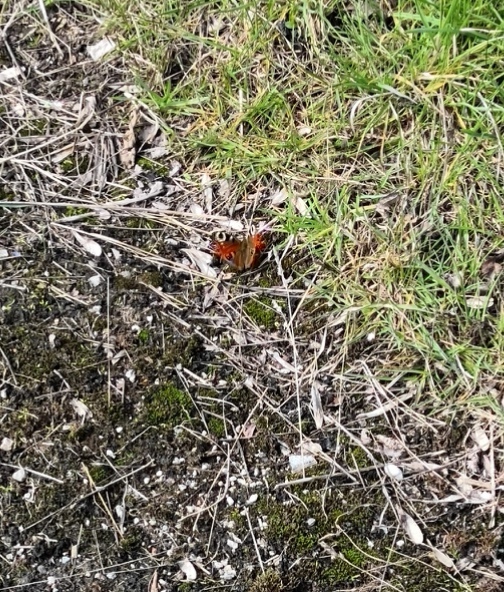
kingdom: Animalia
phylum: Arthropoda
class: Insecta
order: Lepidoptera
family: Nymphalidae
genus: Aglais
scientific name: Aglais io
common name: Peacock
